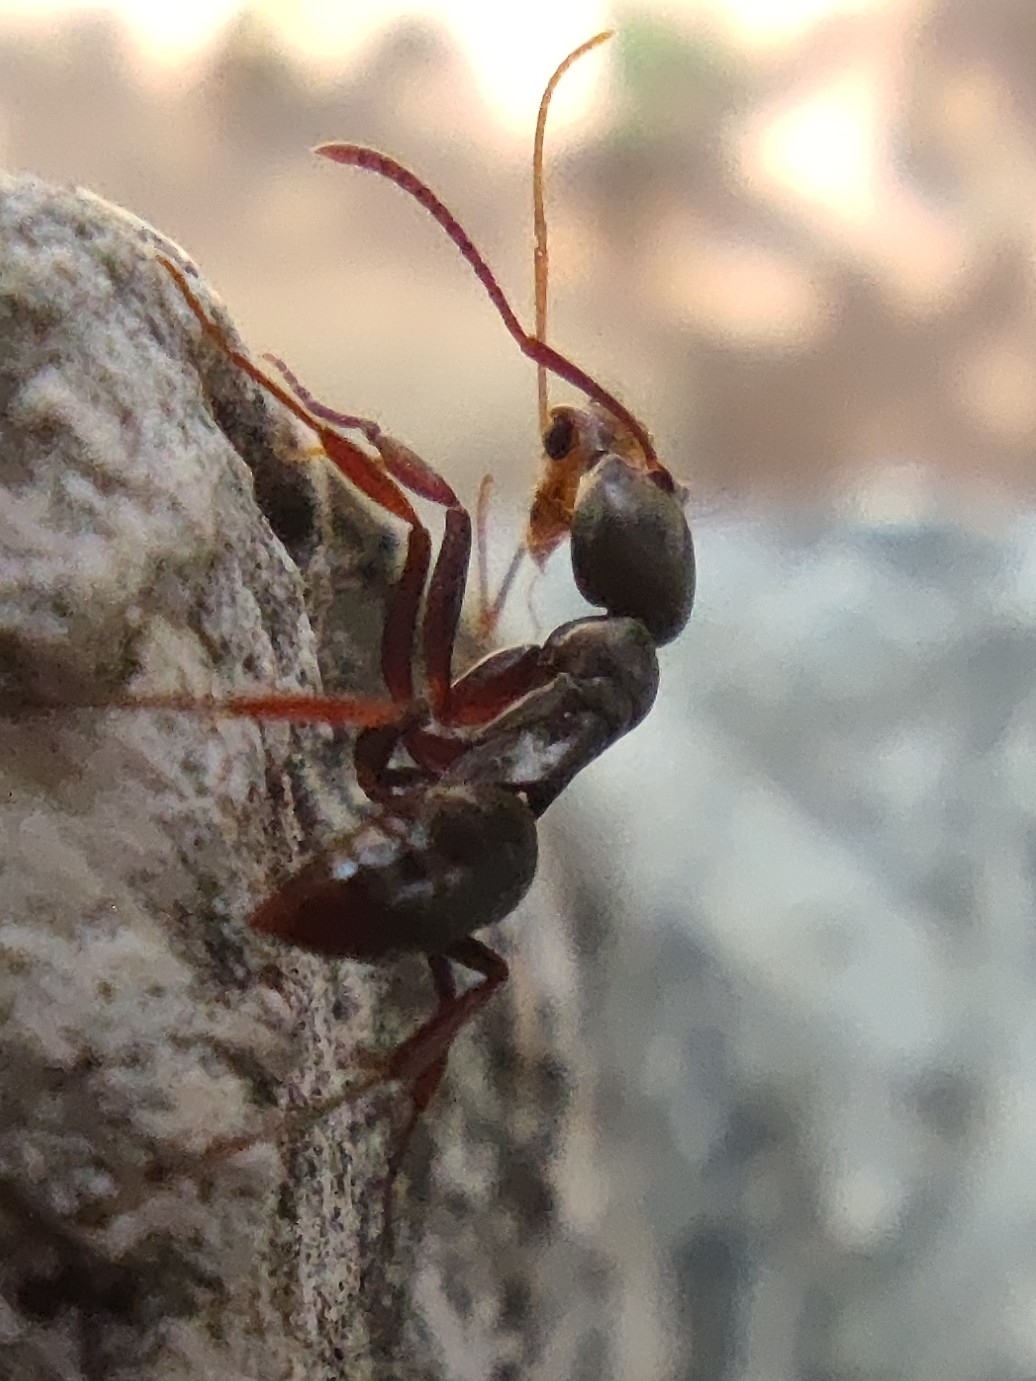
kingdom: Animalia
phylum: Arthropoda
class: Insecta
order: Hymenoptera
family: Formicidae
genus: Mesoponera
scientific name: Mesoponera melanaria
